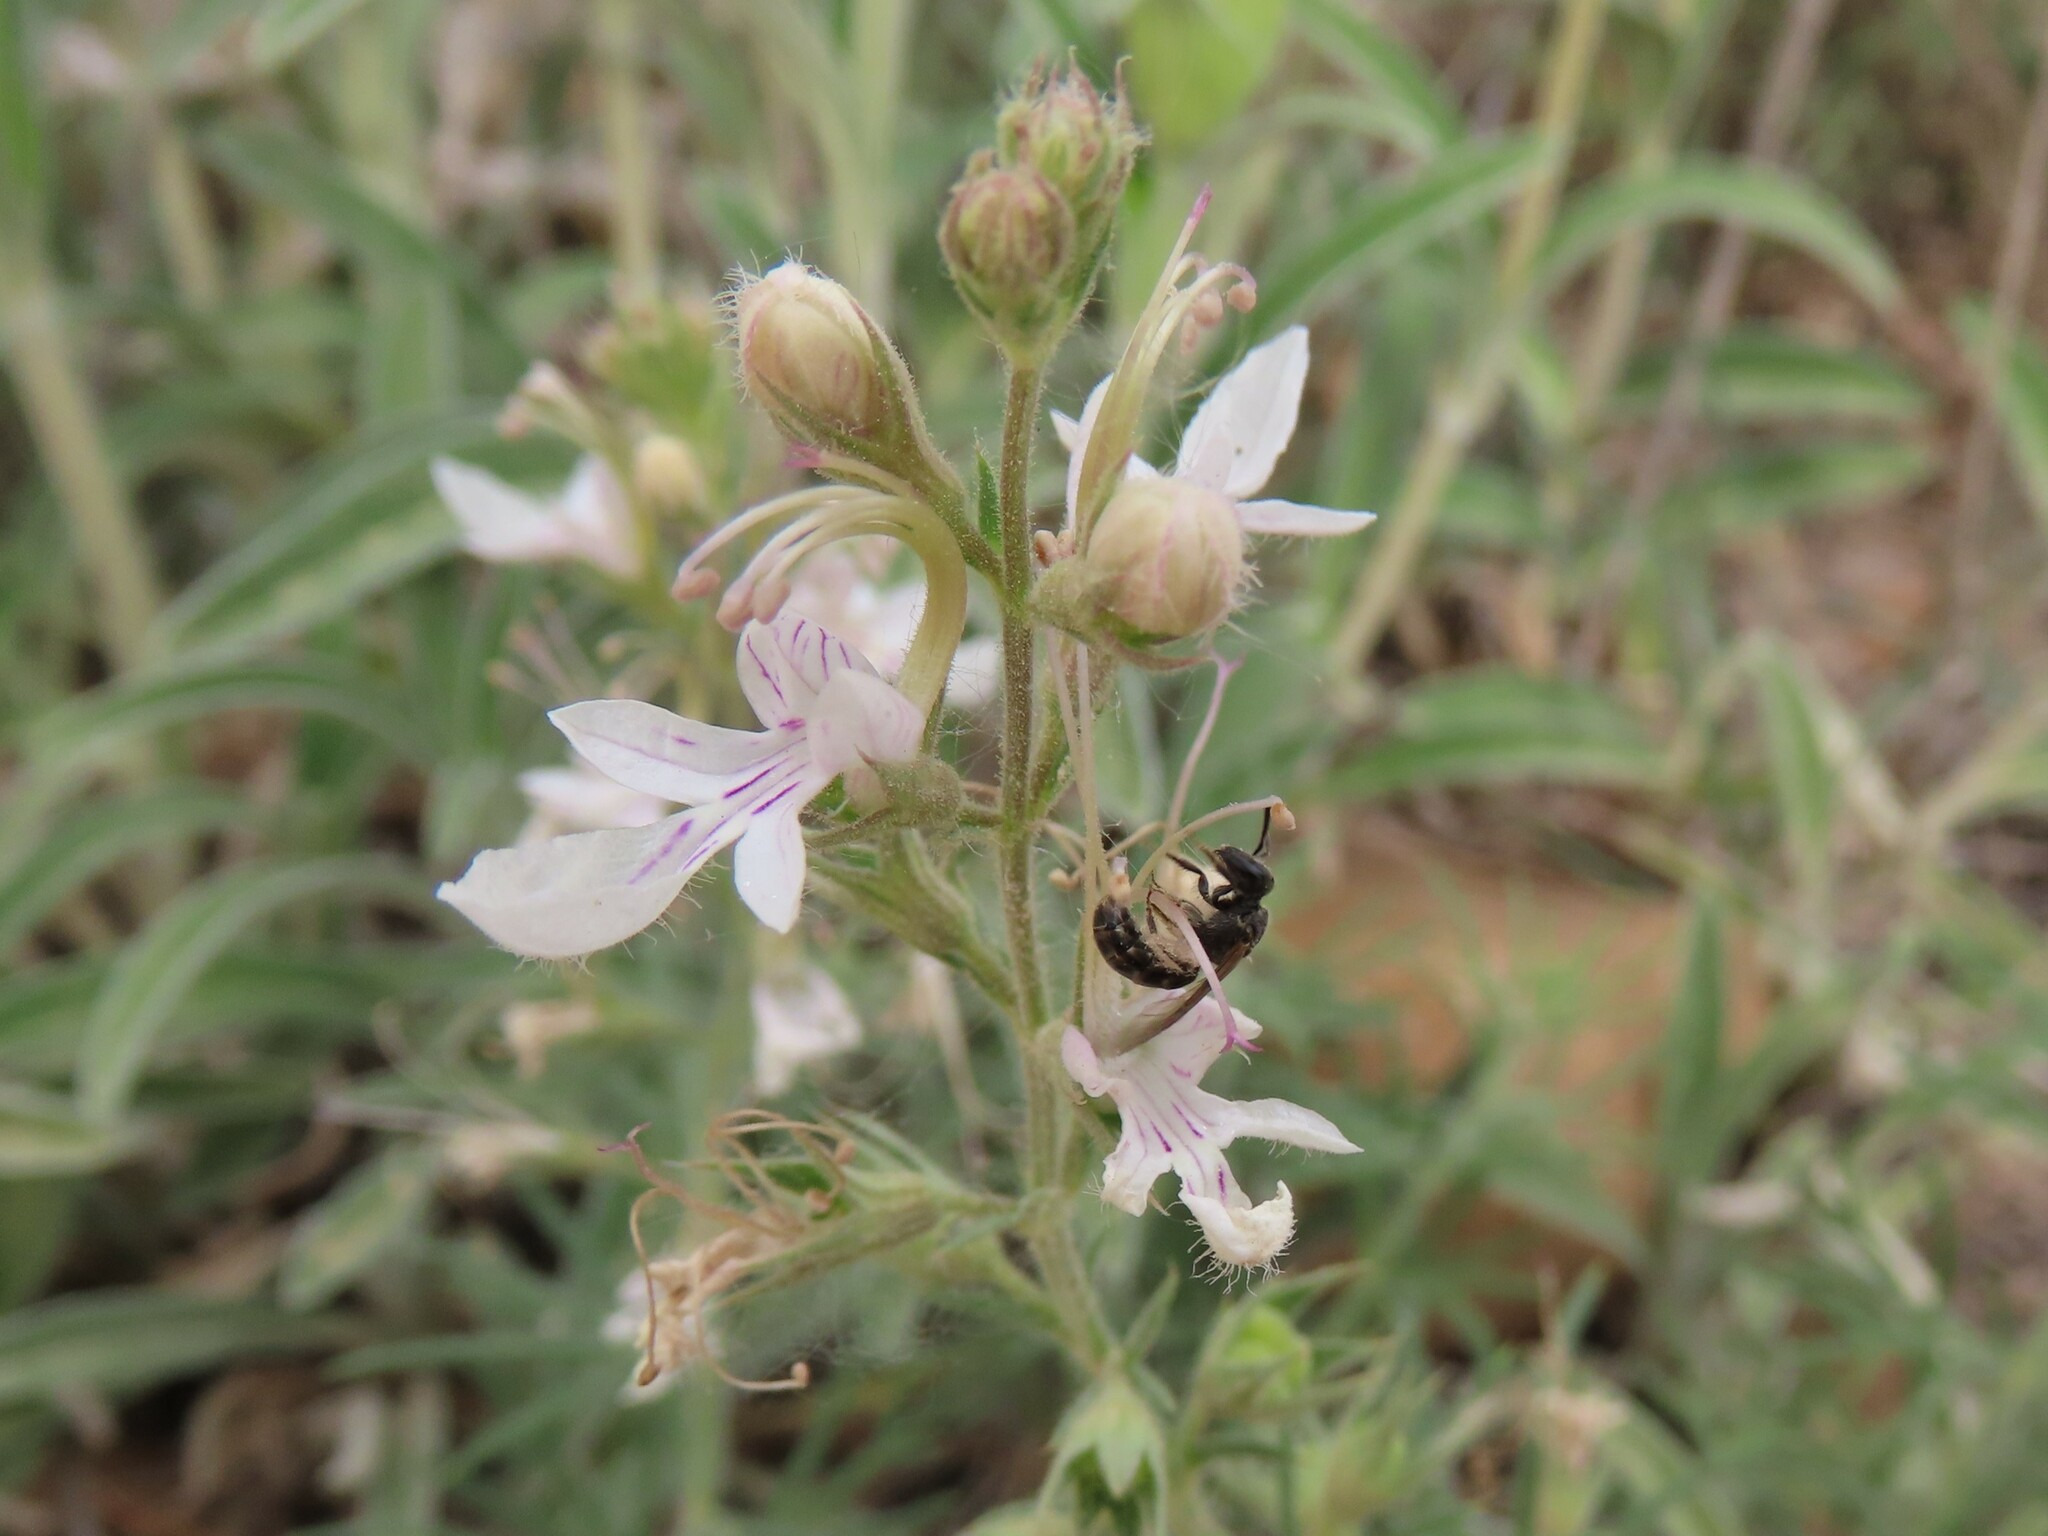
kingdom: Plantae
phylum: Tracheophyta
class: Magnoliopsida
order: Lamiales
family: Lamiaceae
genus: Teucrium
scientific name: Teucrium pseudochamaepitys
